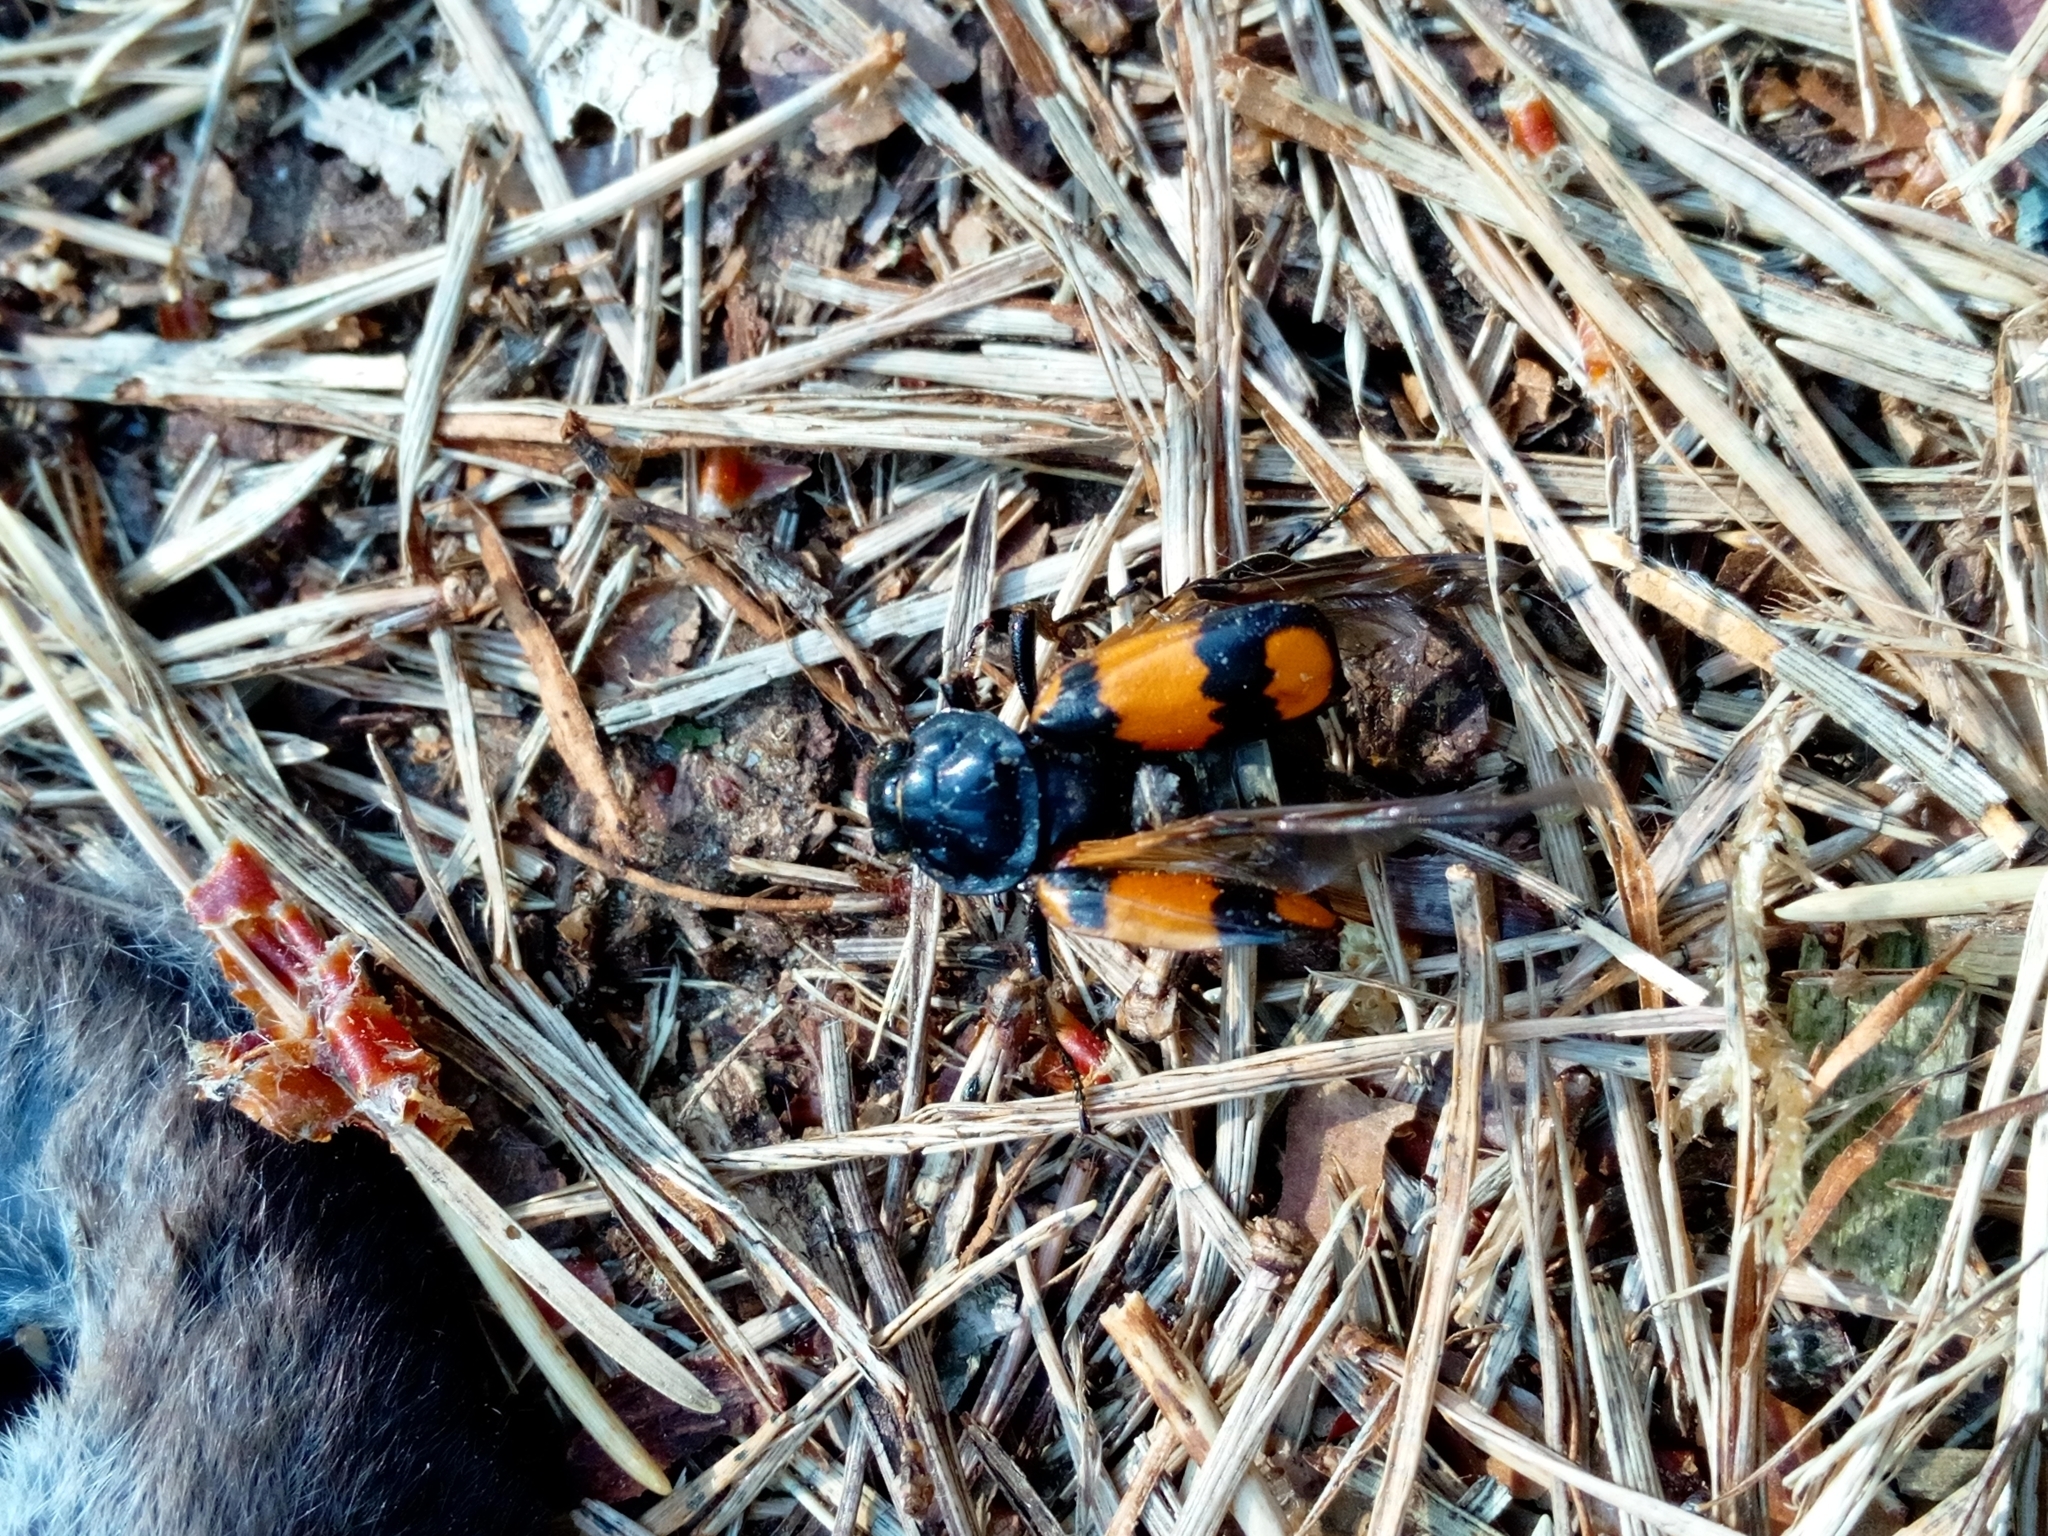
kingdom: Animalia
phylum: Arthropoda
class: Insecta
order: Coleoptera
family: Staphylinidae
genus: Nicrophorus
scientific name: Nicrophorus vespilloides
